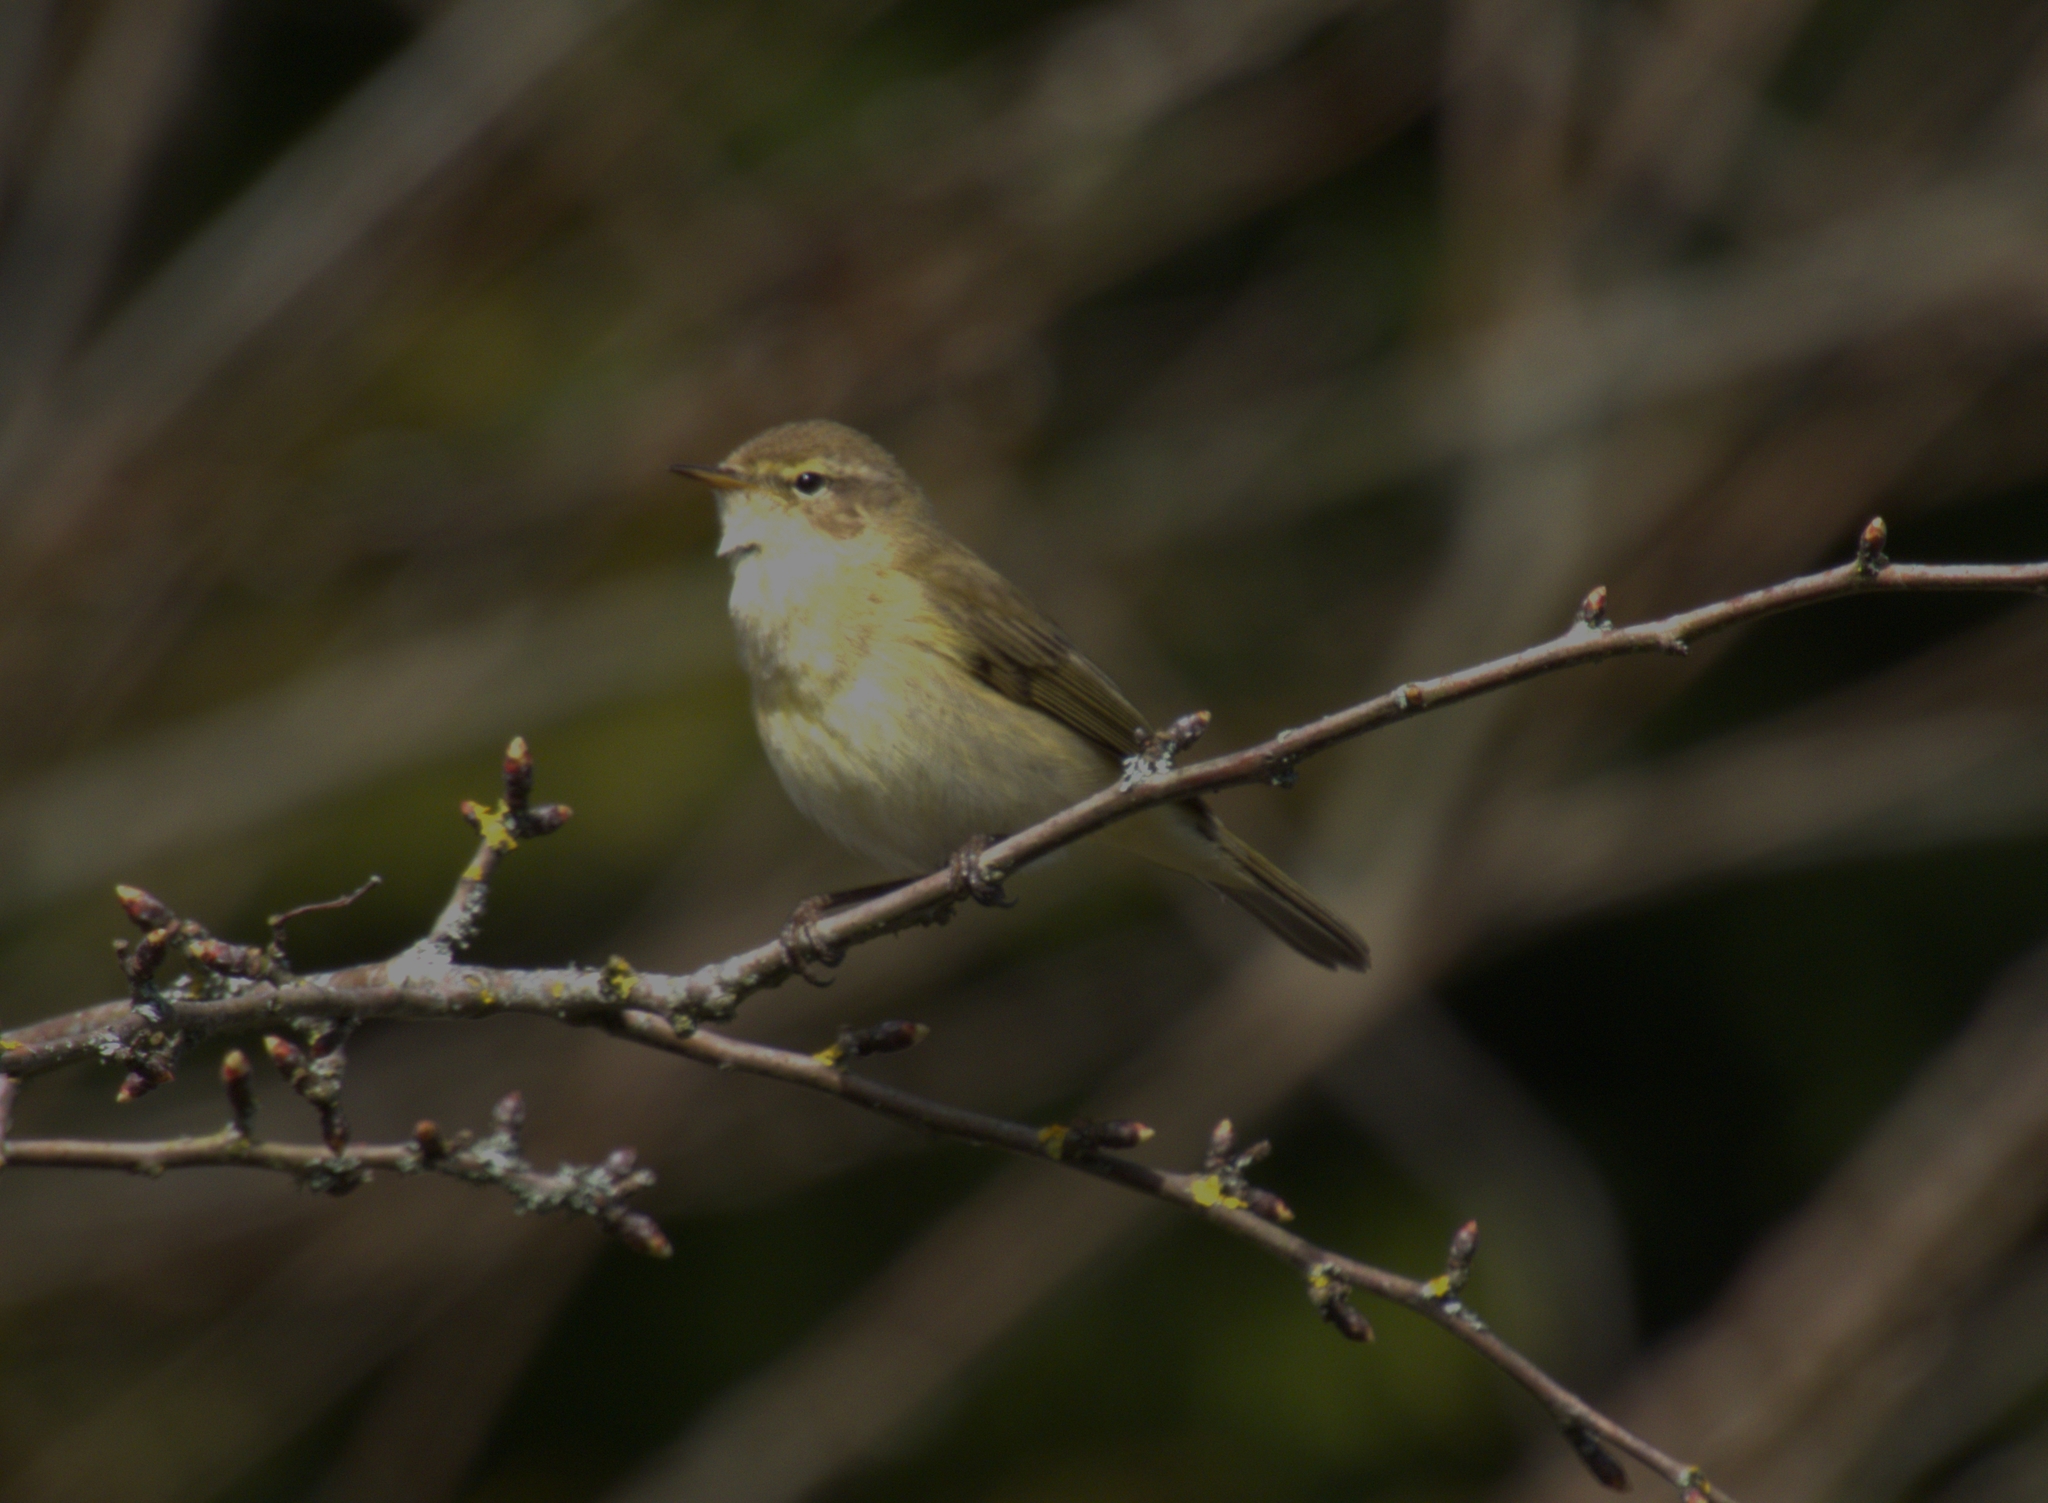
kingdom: Animalia
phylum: Chordata
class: Aves
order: Passeriformes
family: Phylloscopidae
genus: Phylloscopus
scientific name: Phylloscopus collybita
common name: Common chiffchaff
